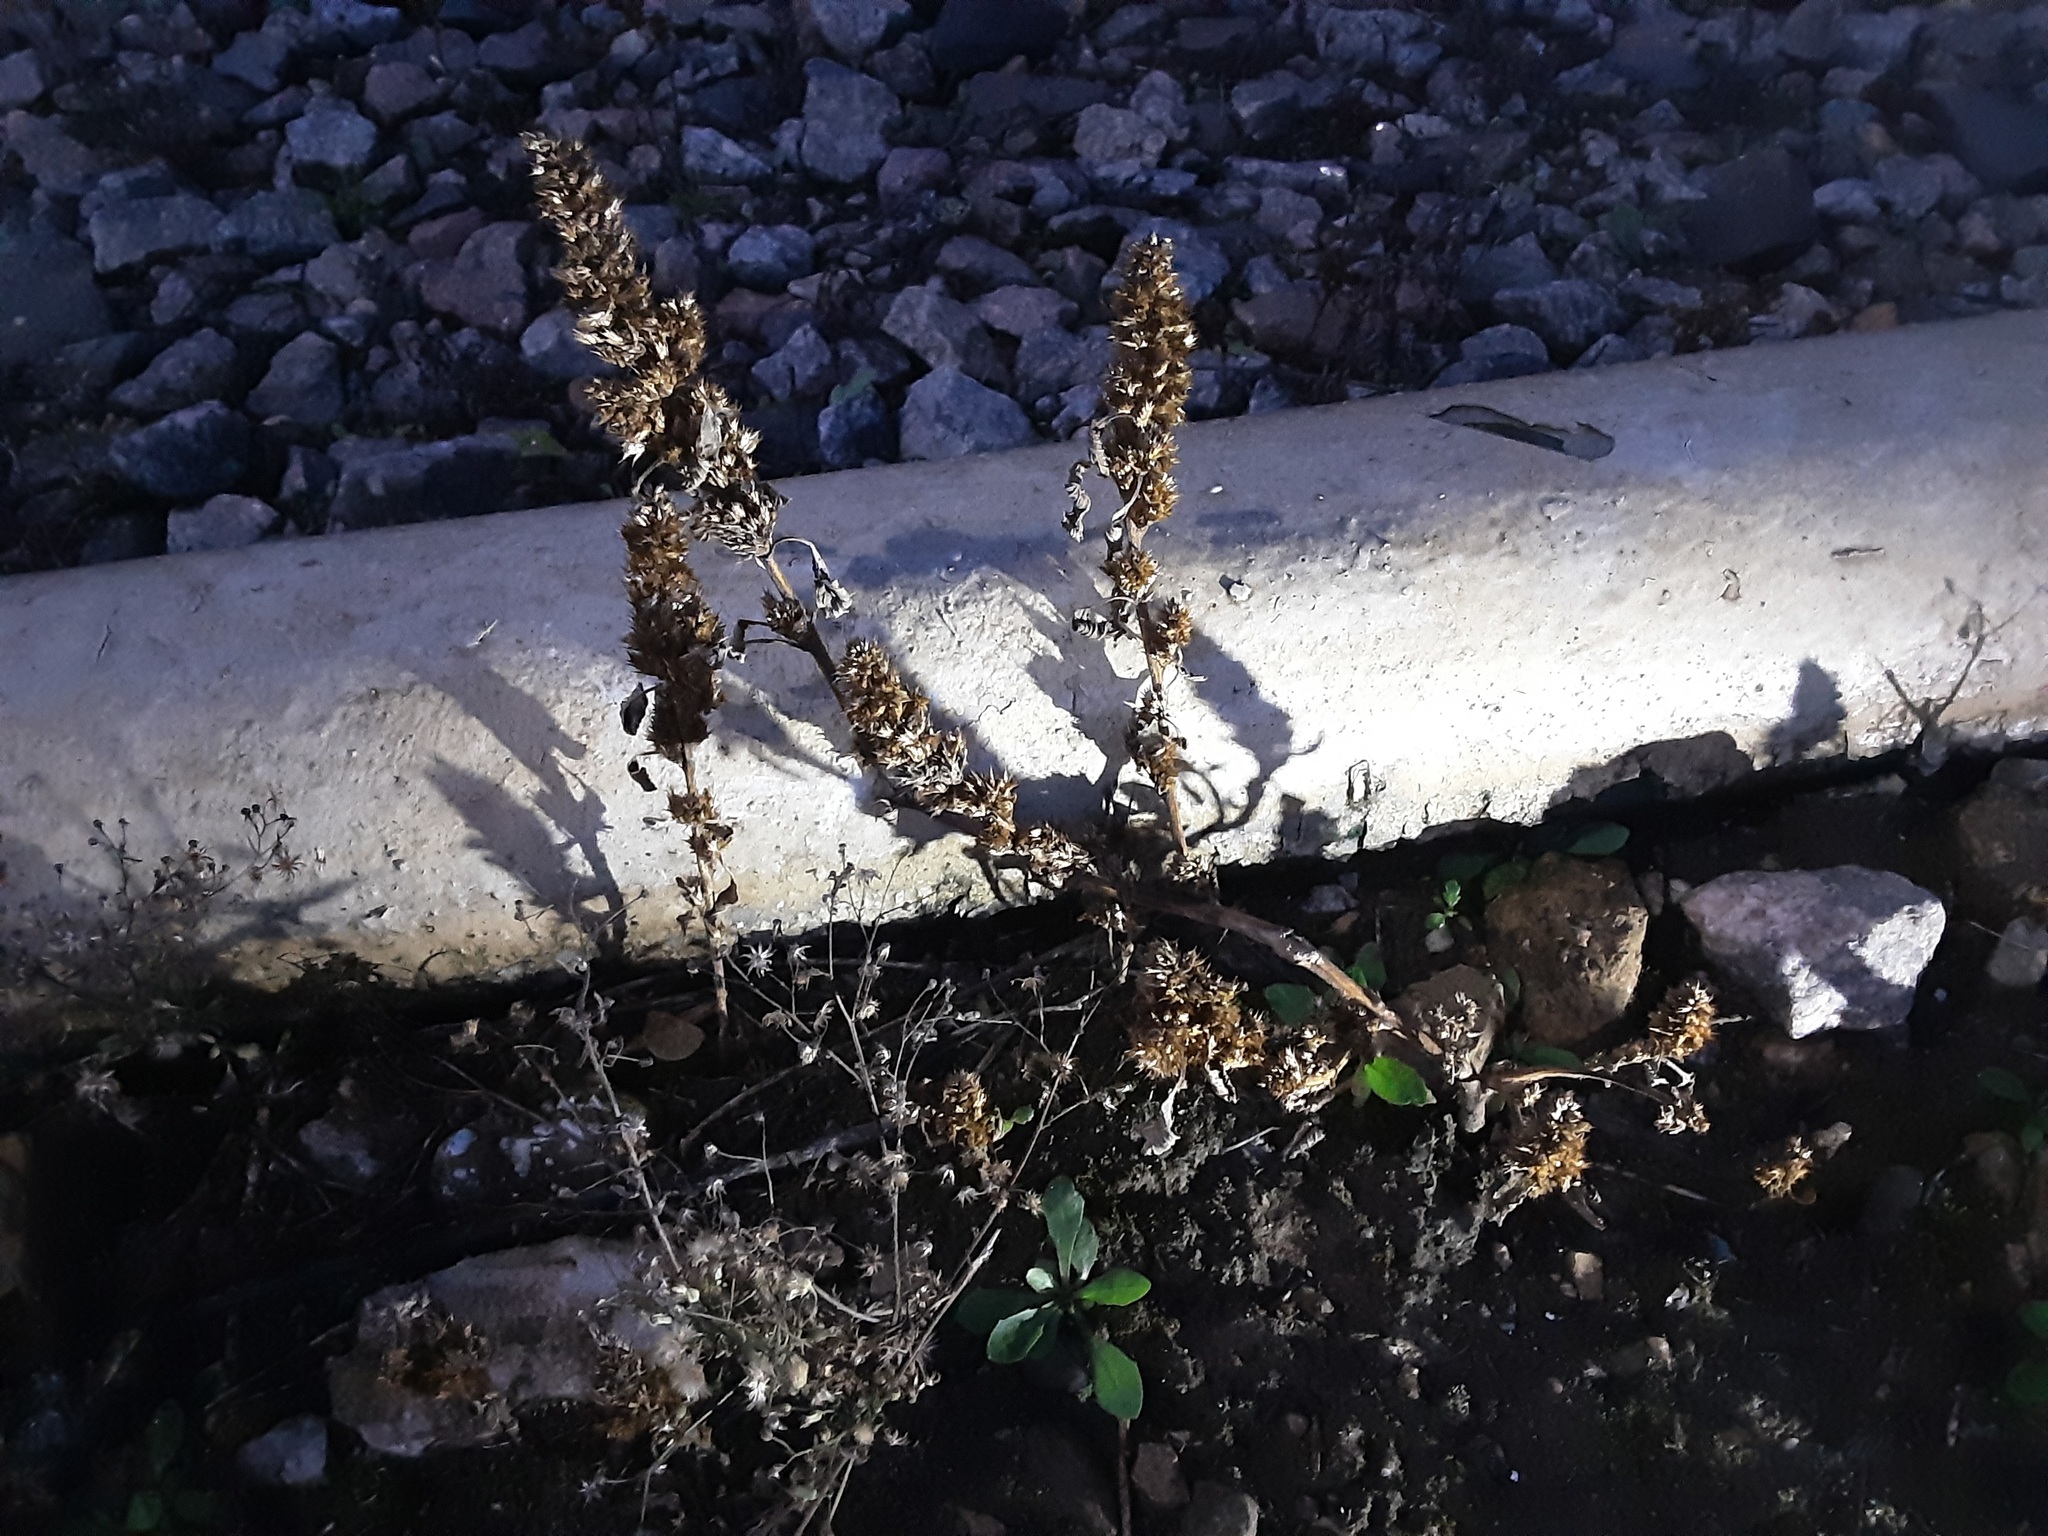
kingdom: Plantae
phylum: Tracheophyta
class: Magnoliopsida
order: Caryophyllales
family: Amaranthaceae
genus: Amaranthus
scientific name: Amaranthus retroflexus
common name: Redroot amaranth
